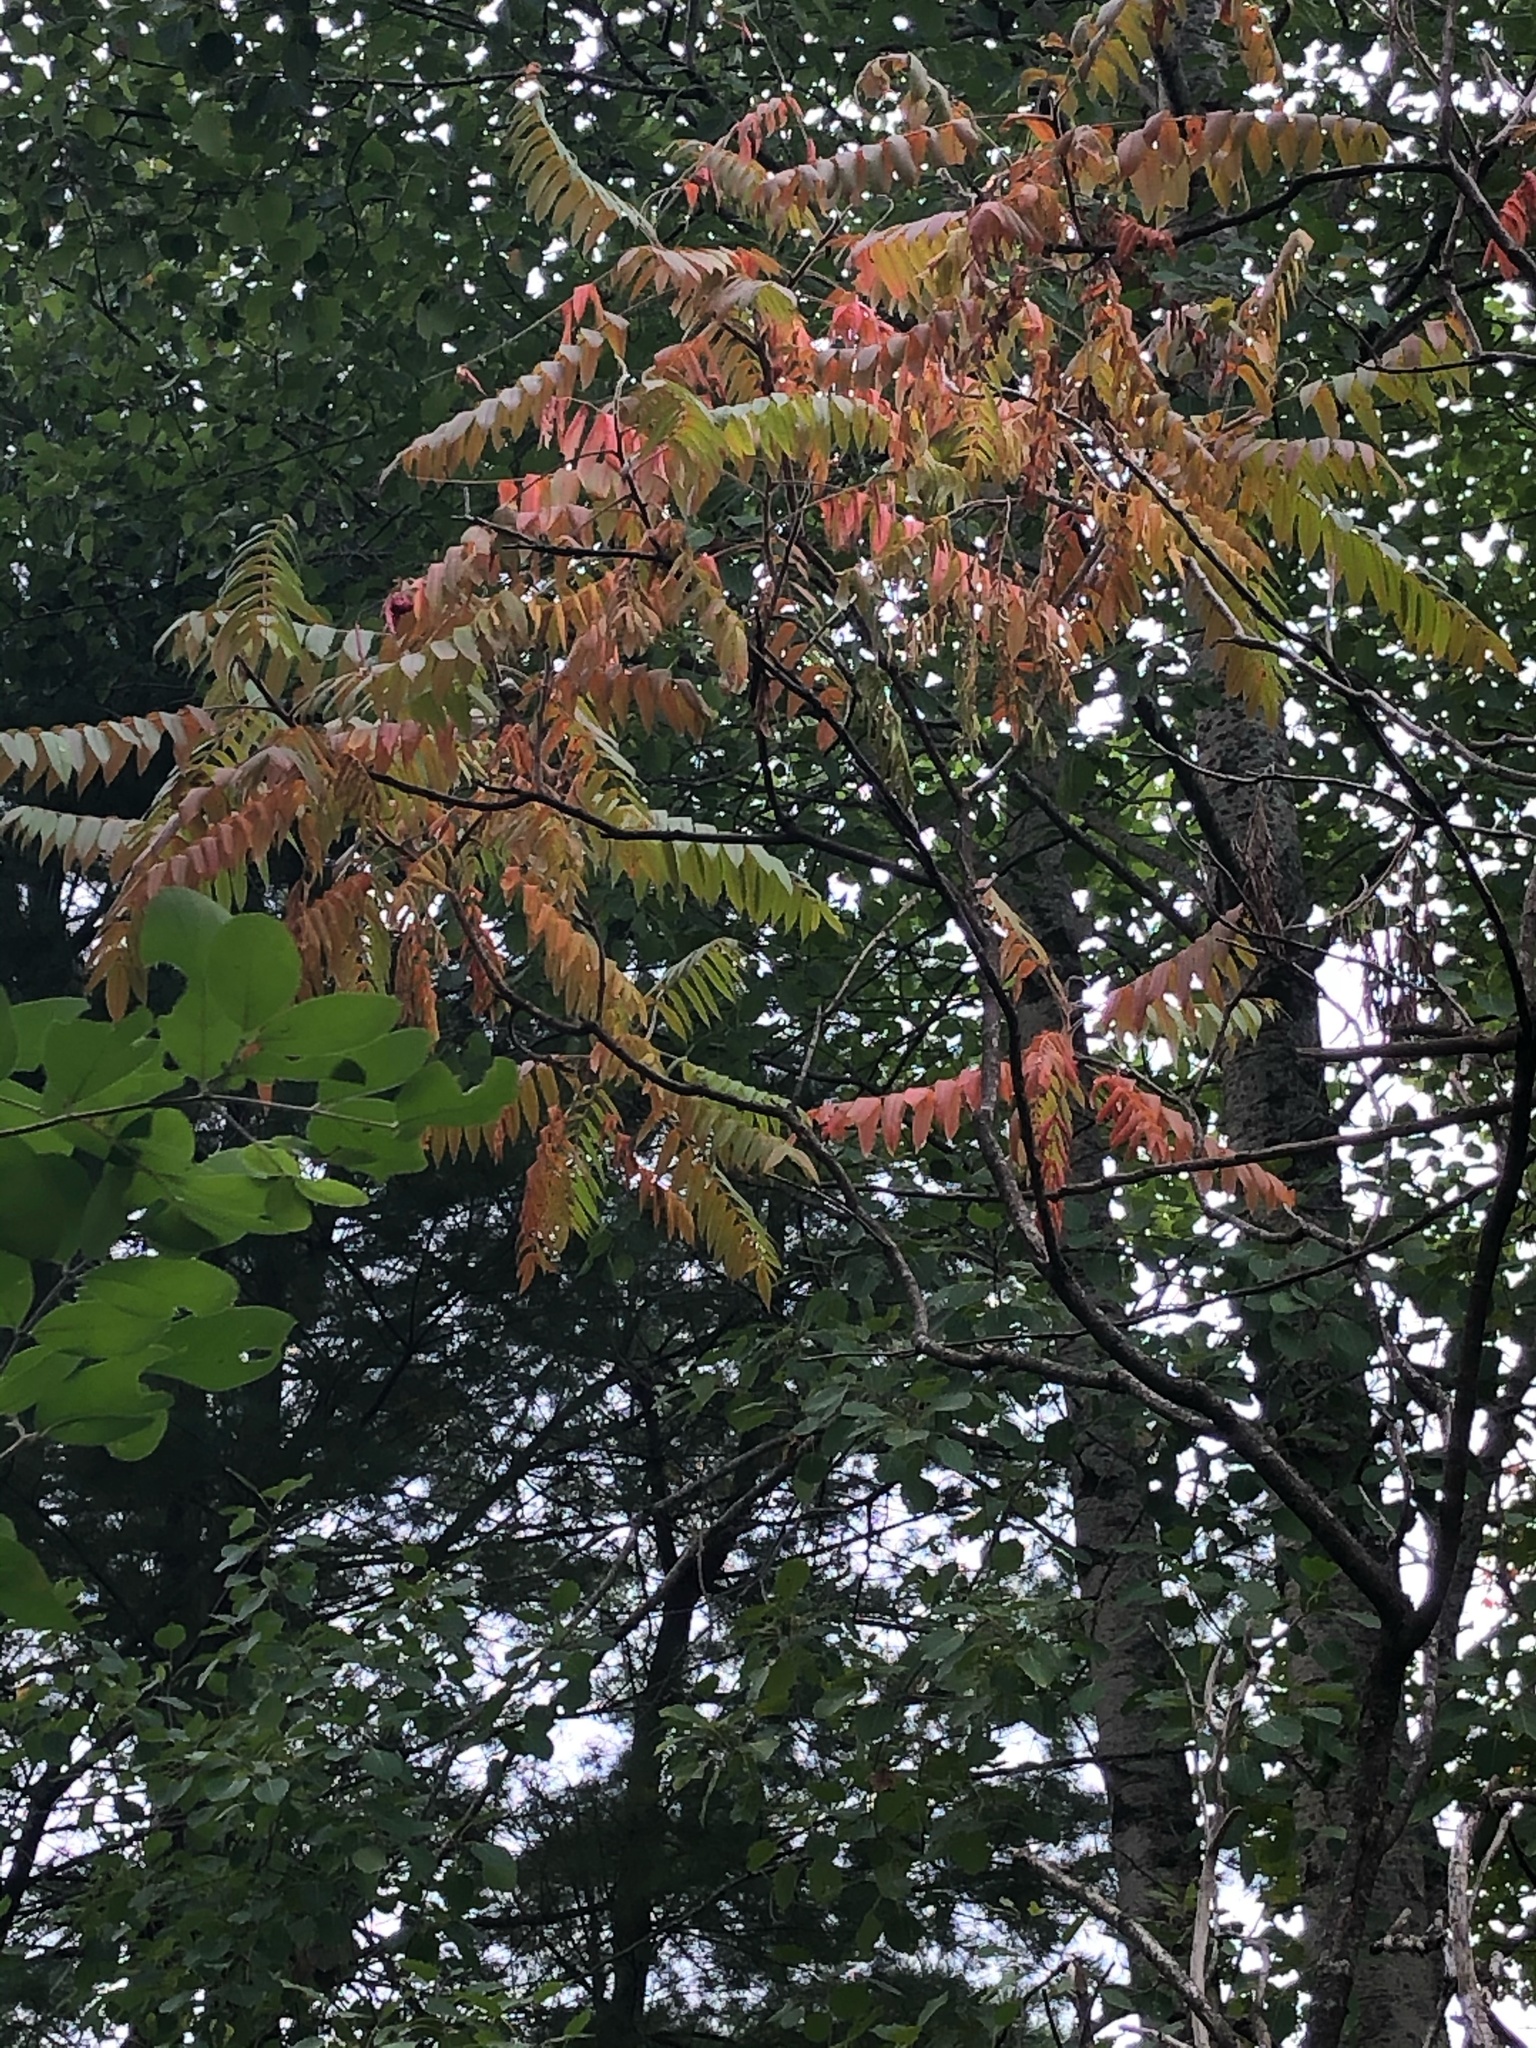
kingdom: Plantae
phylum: Tracheophyta
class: Magnoliopsida
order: Sapindales
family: Anacardiaceae
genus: Rhus
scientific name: Rhus typhina
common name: Staghorn sumac
